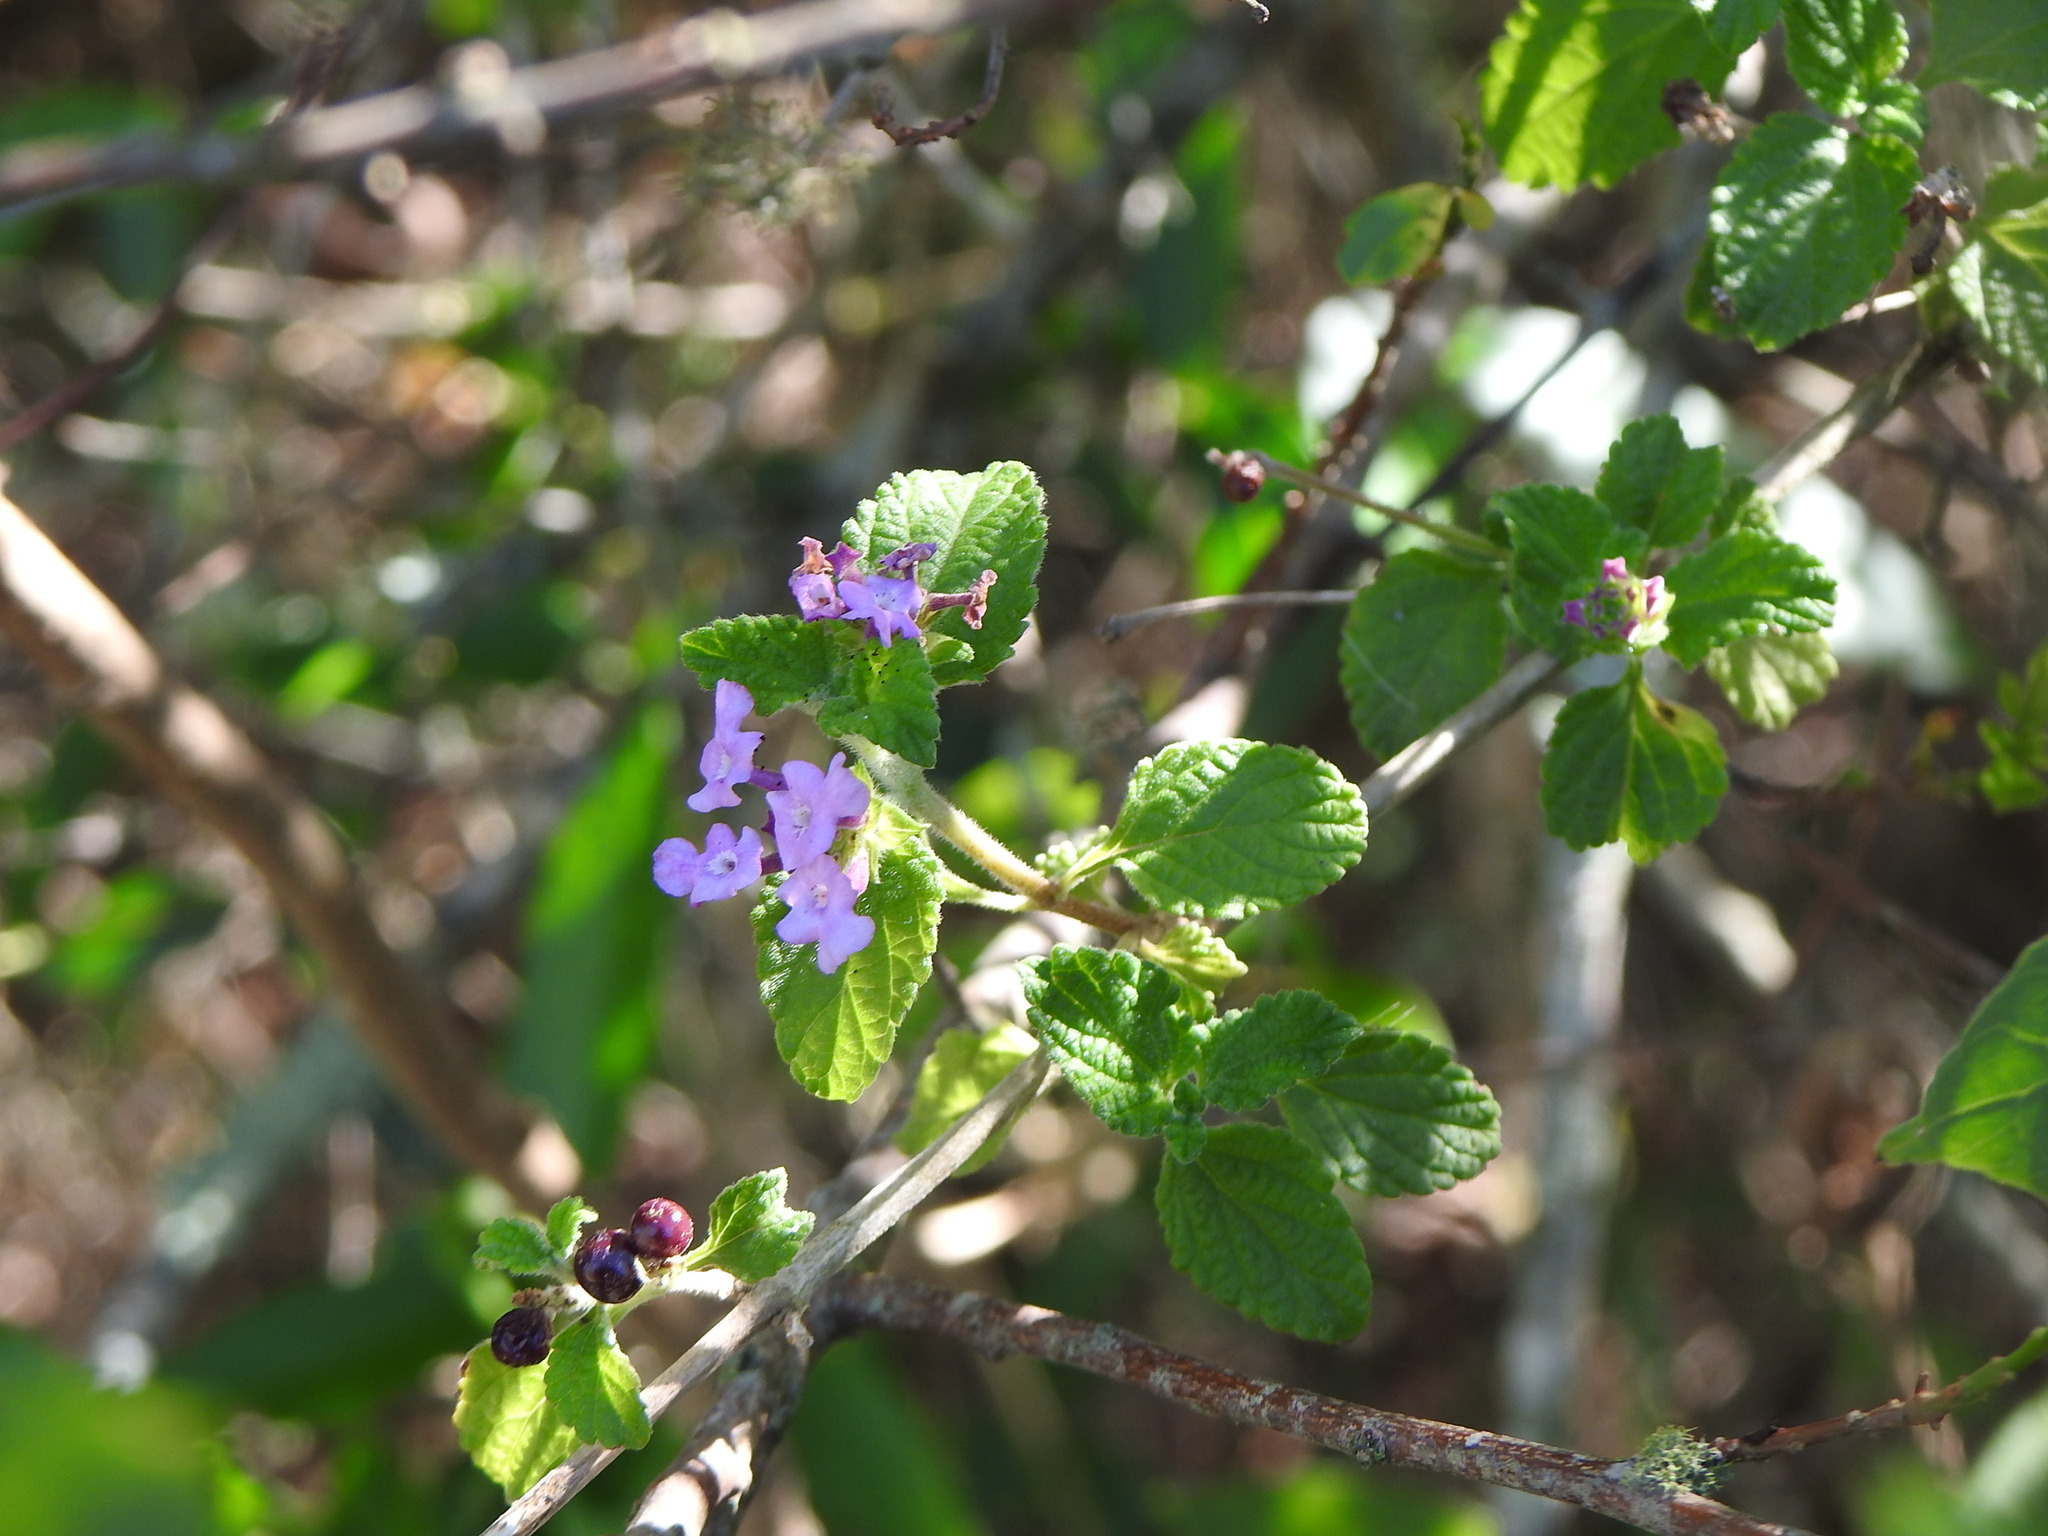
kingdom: Plantae
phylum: Tracheophyta
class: Magnoliopsida
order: Lamiales
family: Verbenaceae
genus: Lantana
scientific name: Lantana megapotamica
